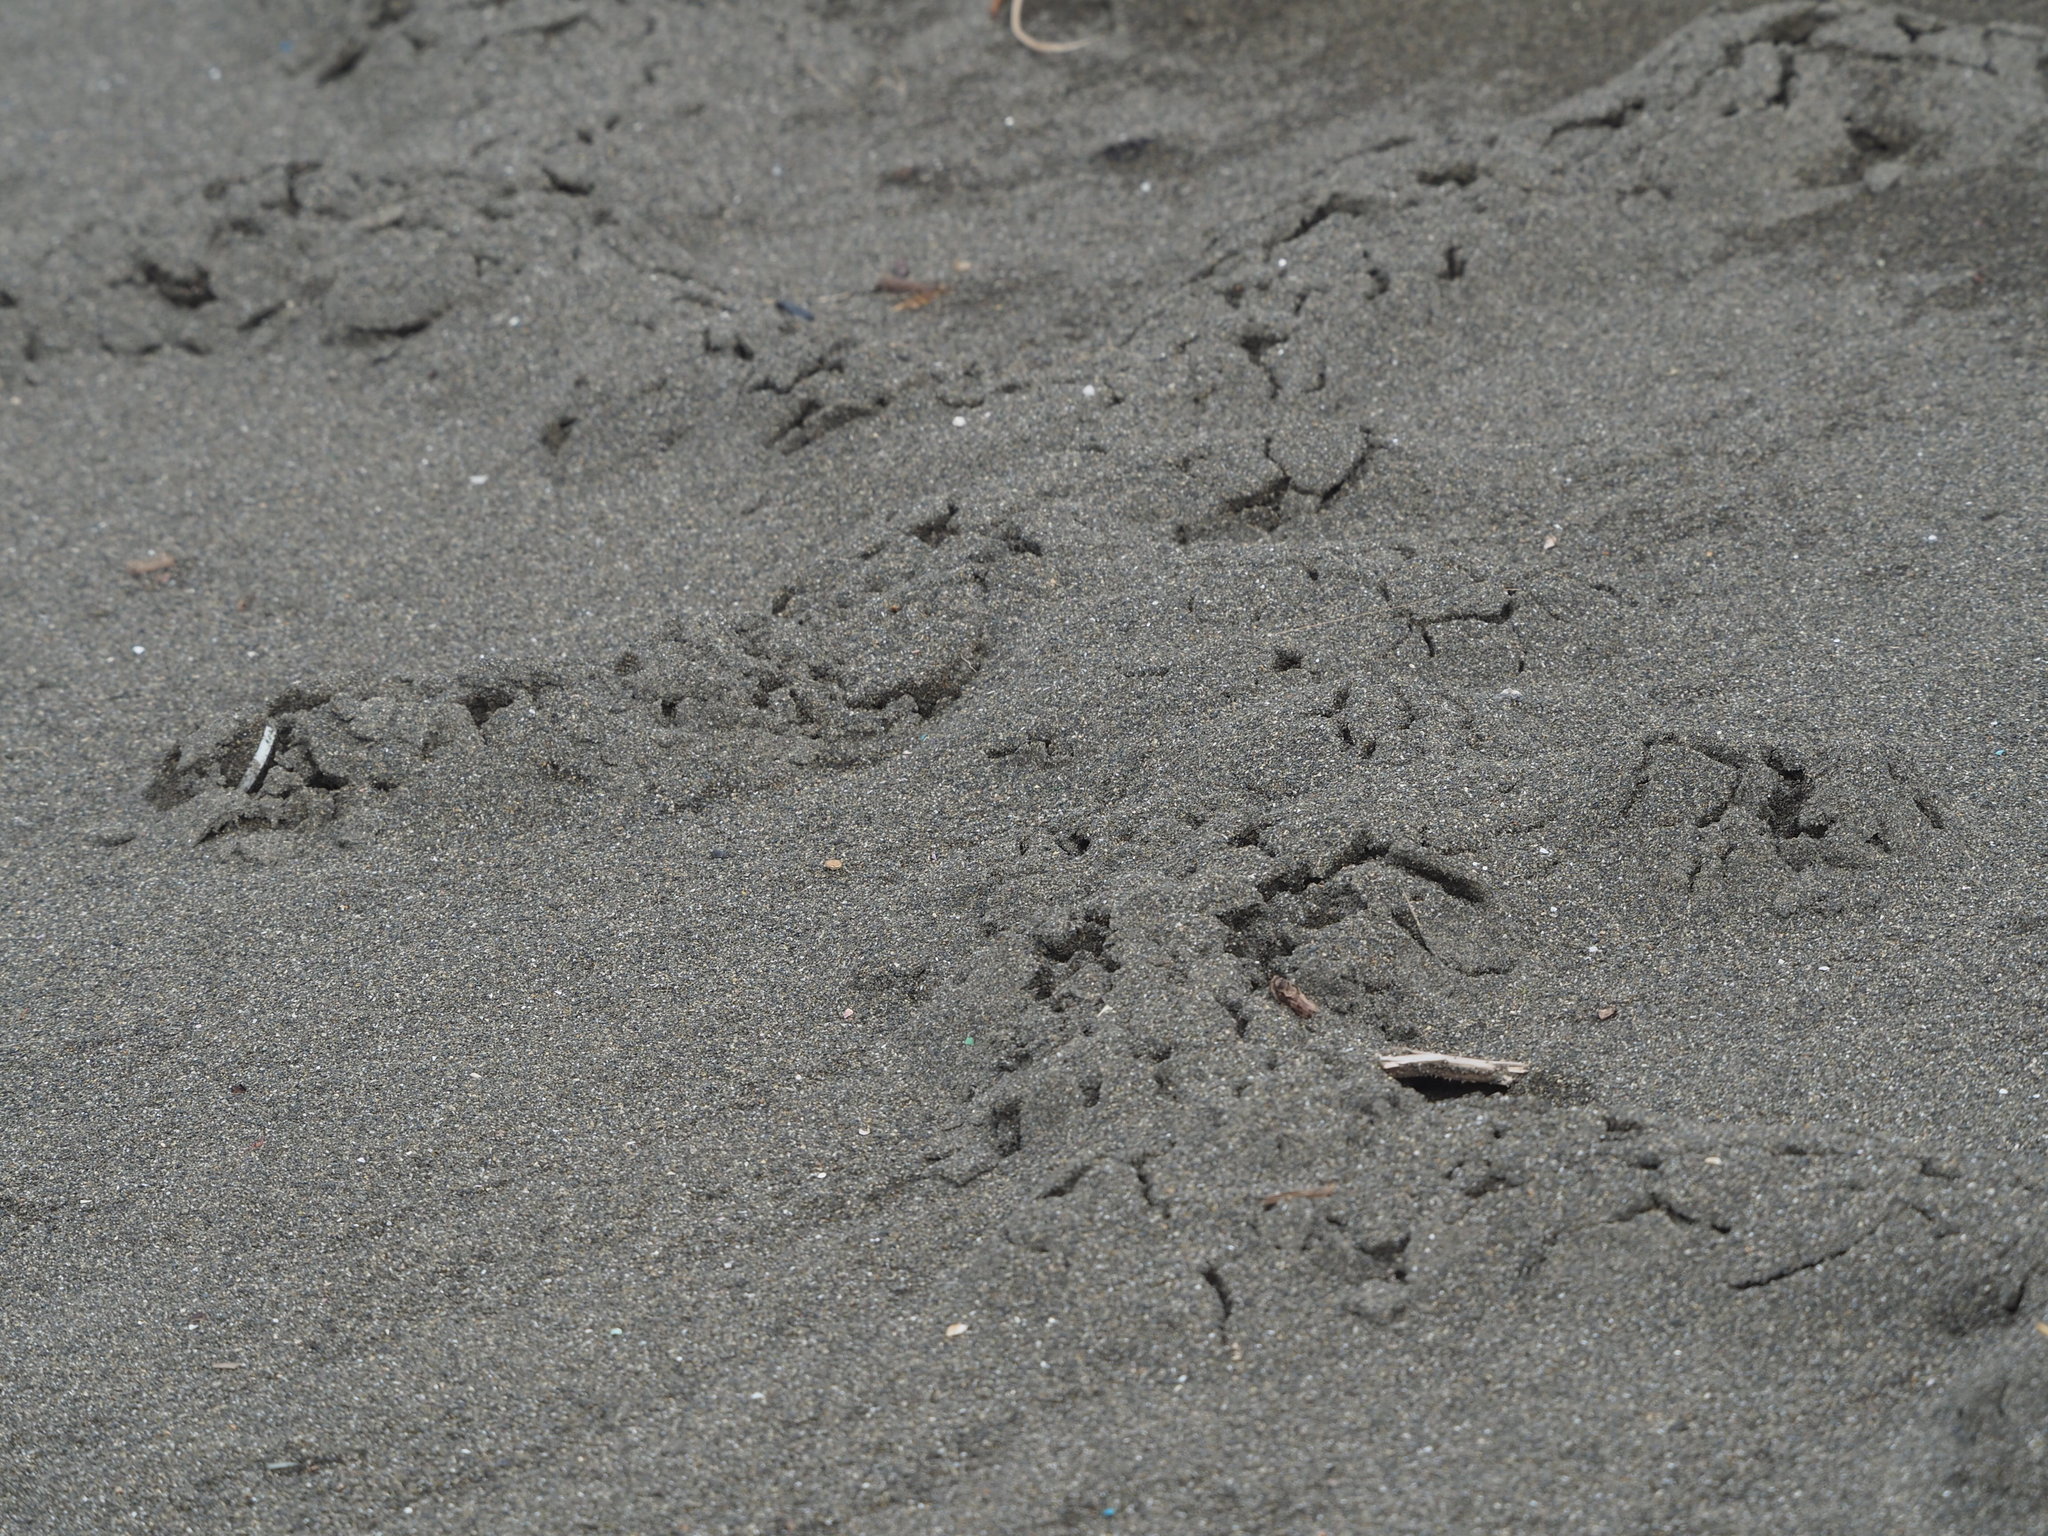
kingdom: Animalia
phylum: Chordata
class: Mammalia
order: Soricomorpha
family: Talpidae
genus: Mogera
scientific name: Mogera insularis
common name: Insular mole
